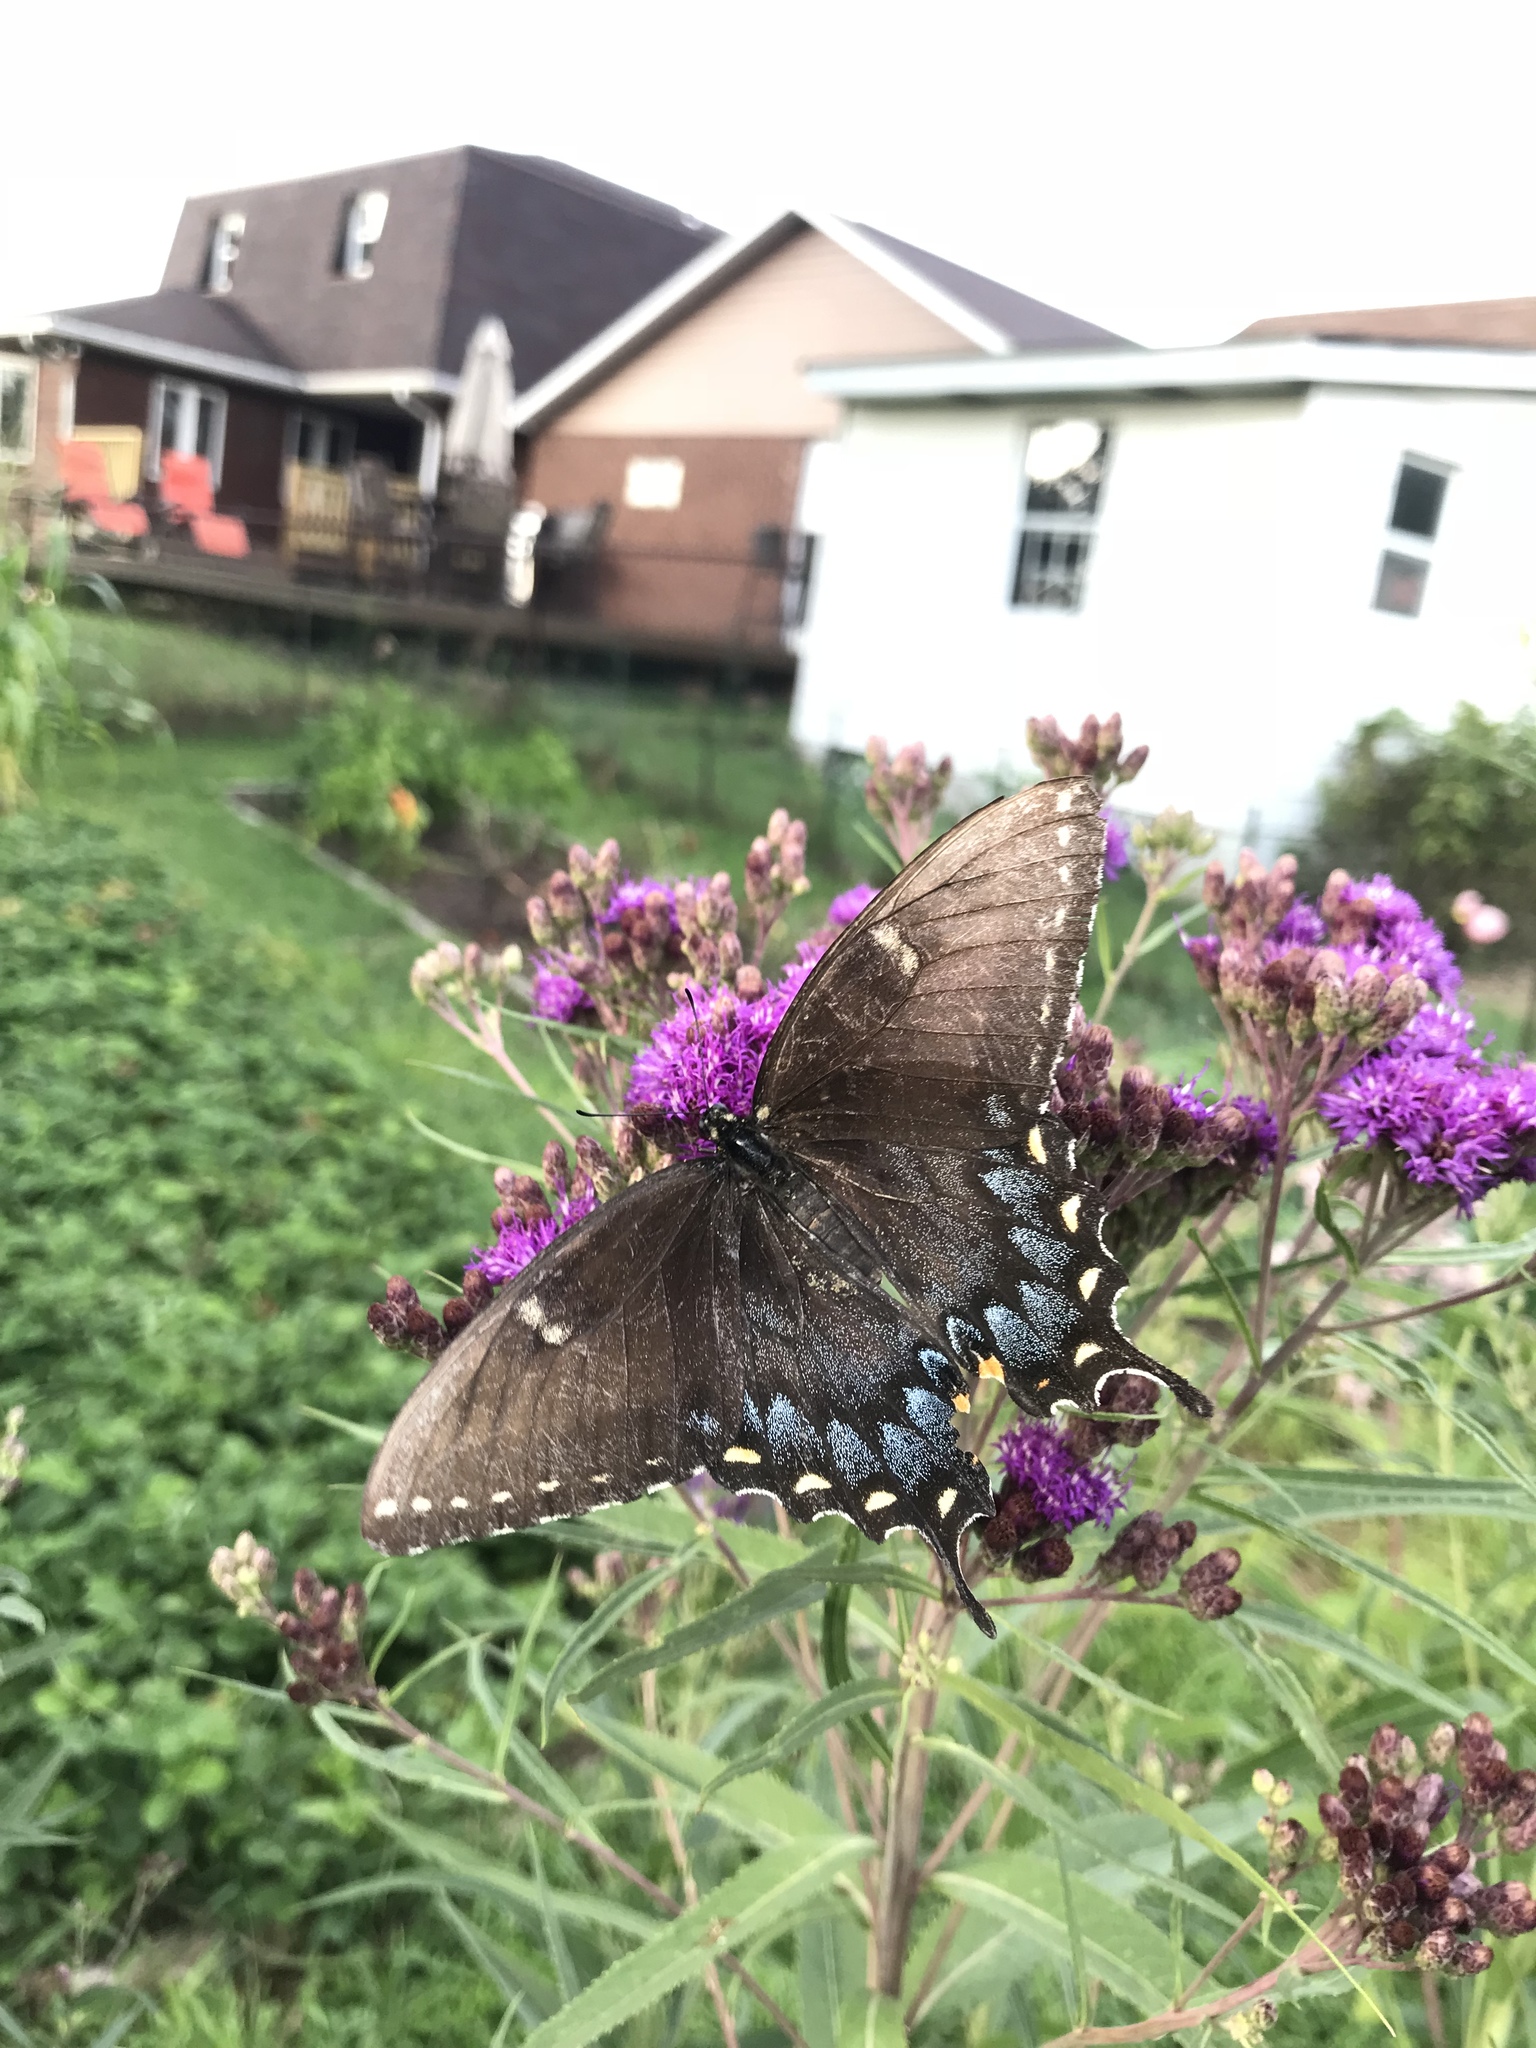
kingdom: Animalia
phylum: Arthropoda
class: Insecta
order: Lepidoptera
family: Papilionidae
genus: Papilio
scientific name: Papilio glaucus
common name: Tiger swallowtail
